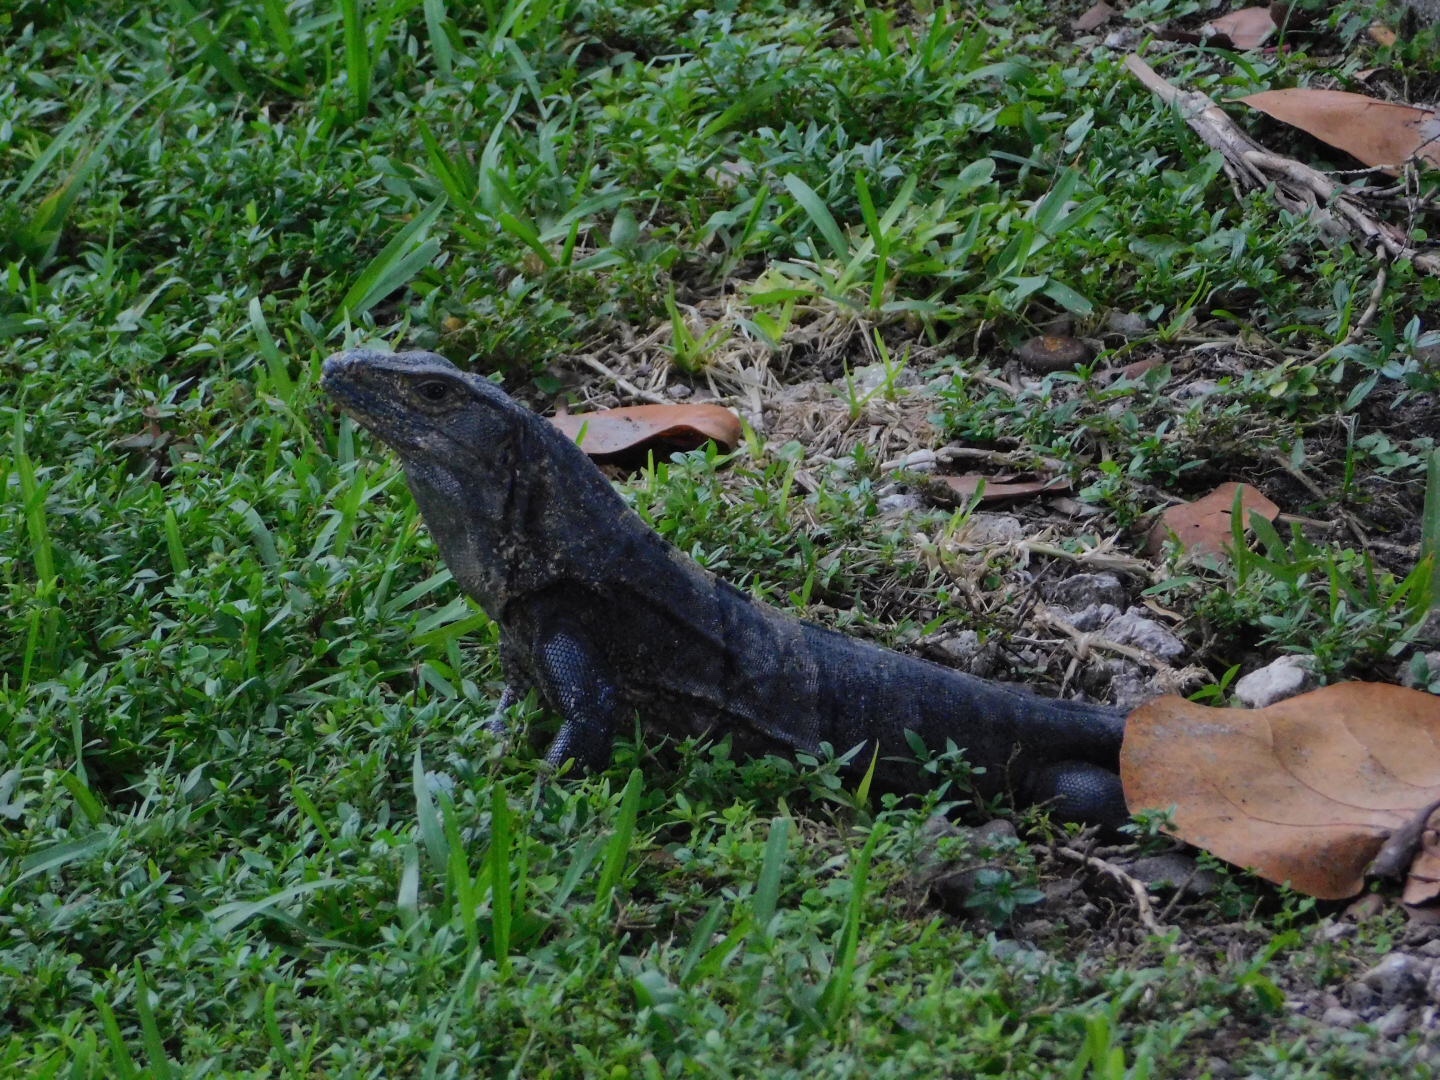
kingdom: Animalia
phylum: Chordata
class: Squamata
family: Iguanidae
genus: Ctenosaura
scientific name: Ctenosaura similis
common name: Black spiny-tailed iguana
